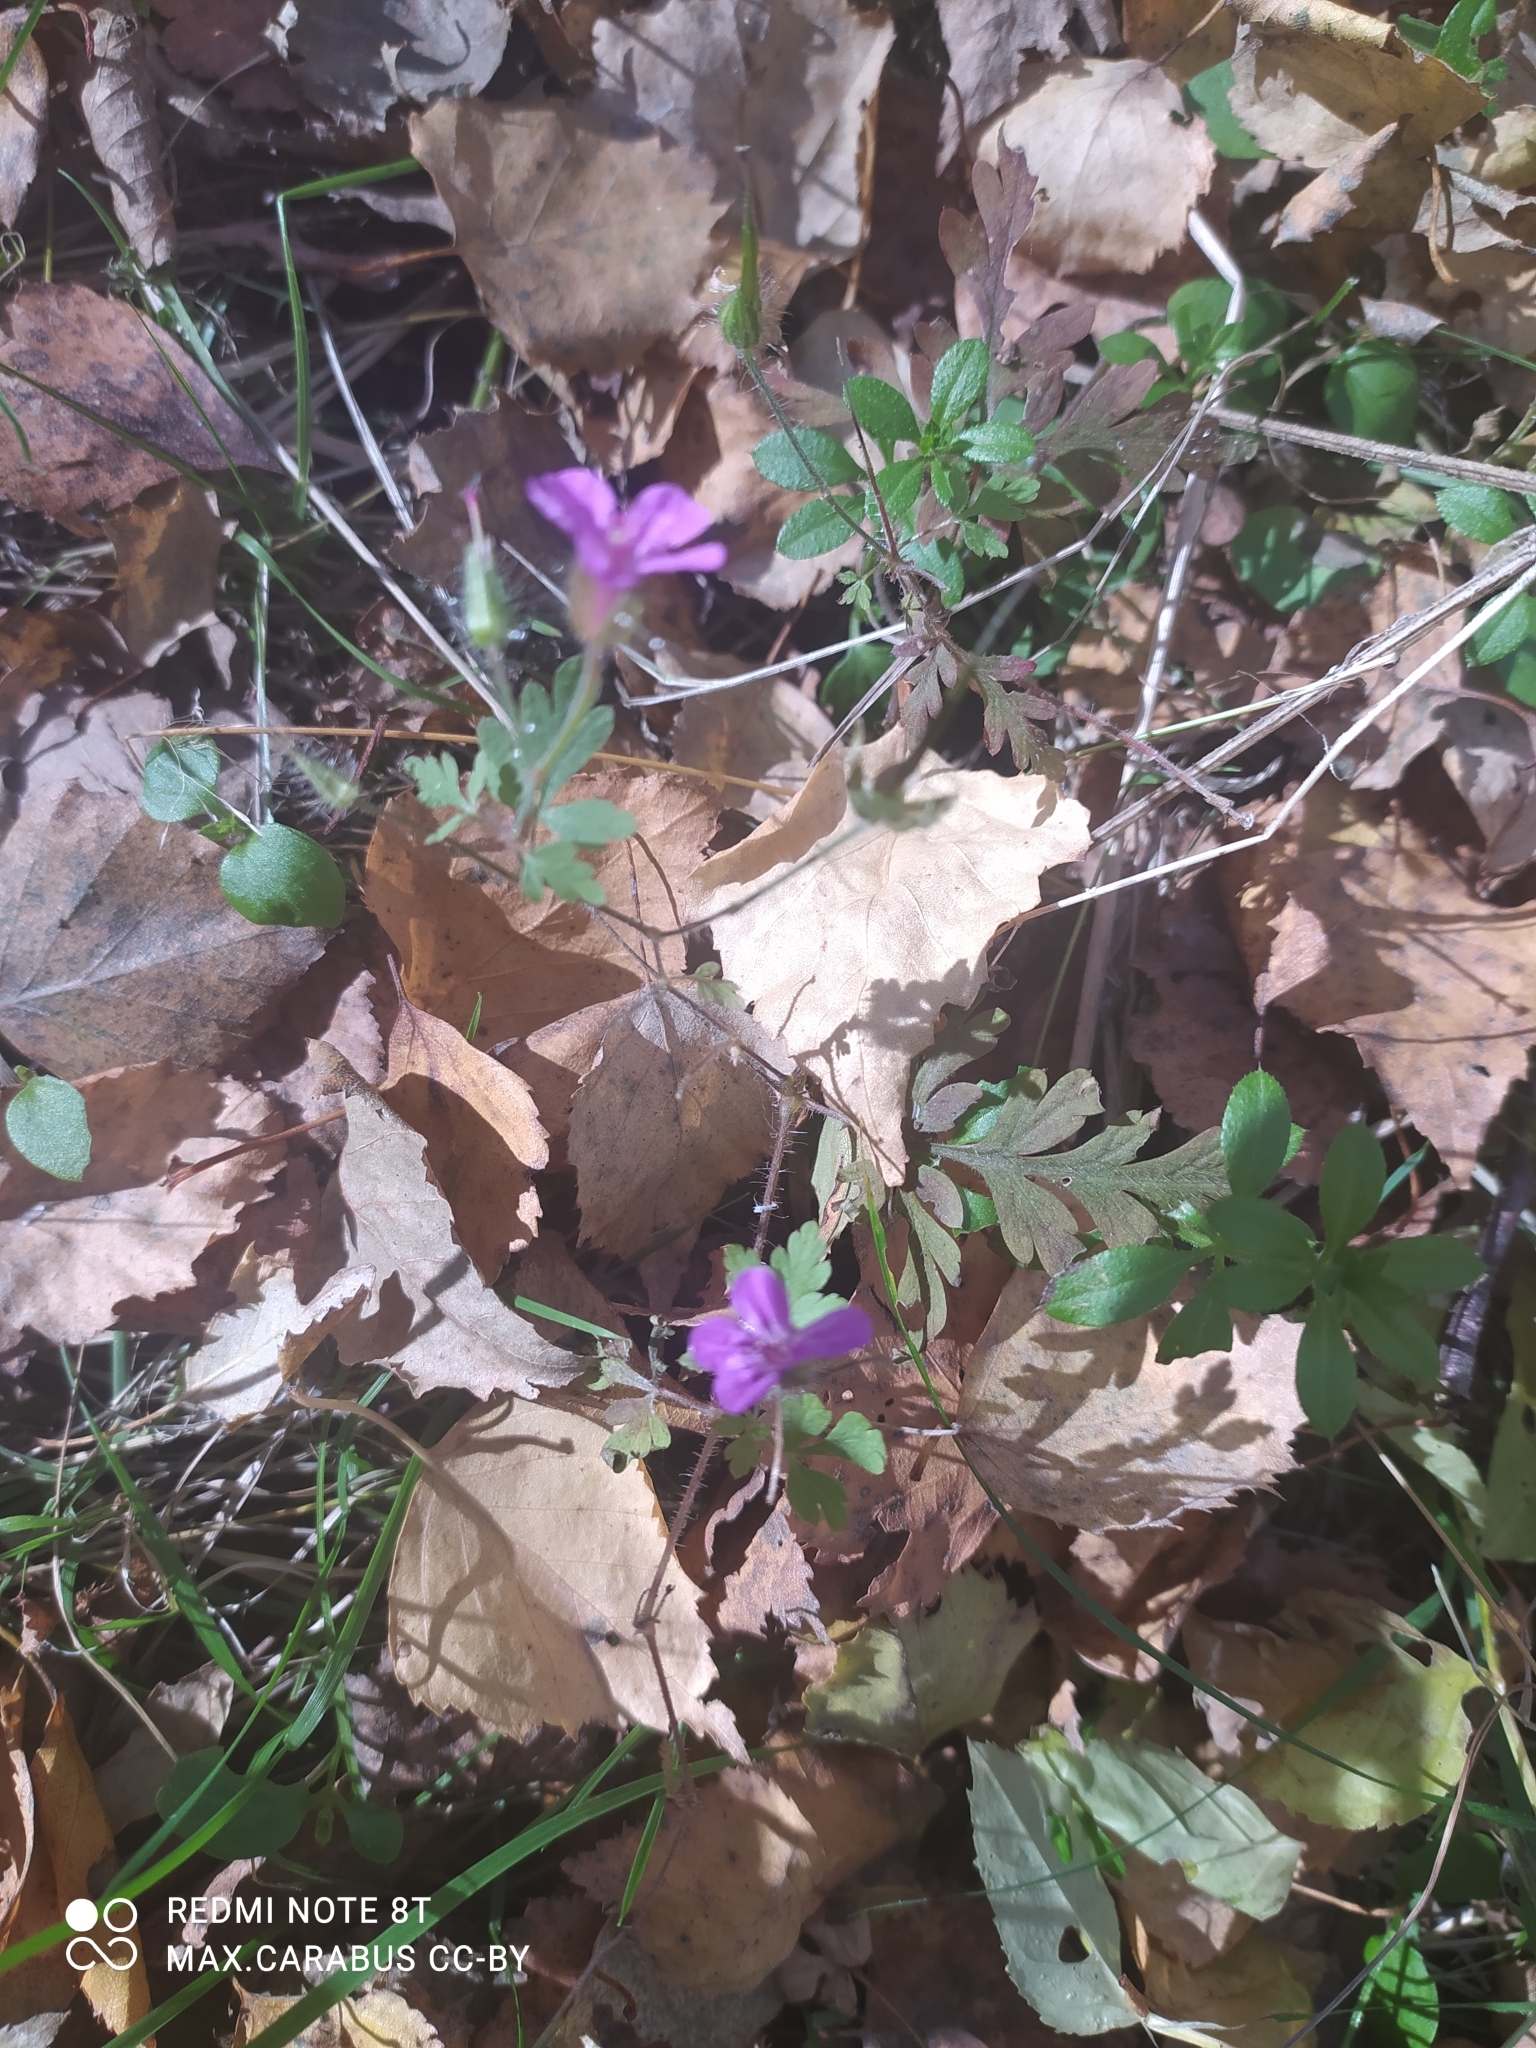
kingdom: Plantae
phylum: Tracheophyta
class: Magnoliopsida
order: Geraniales
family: Geraniaceae
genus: Geranium
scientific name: Geranium robertianum
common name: Herb-robert
